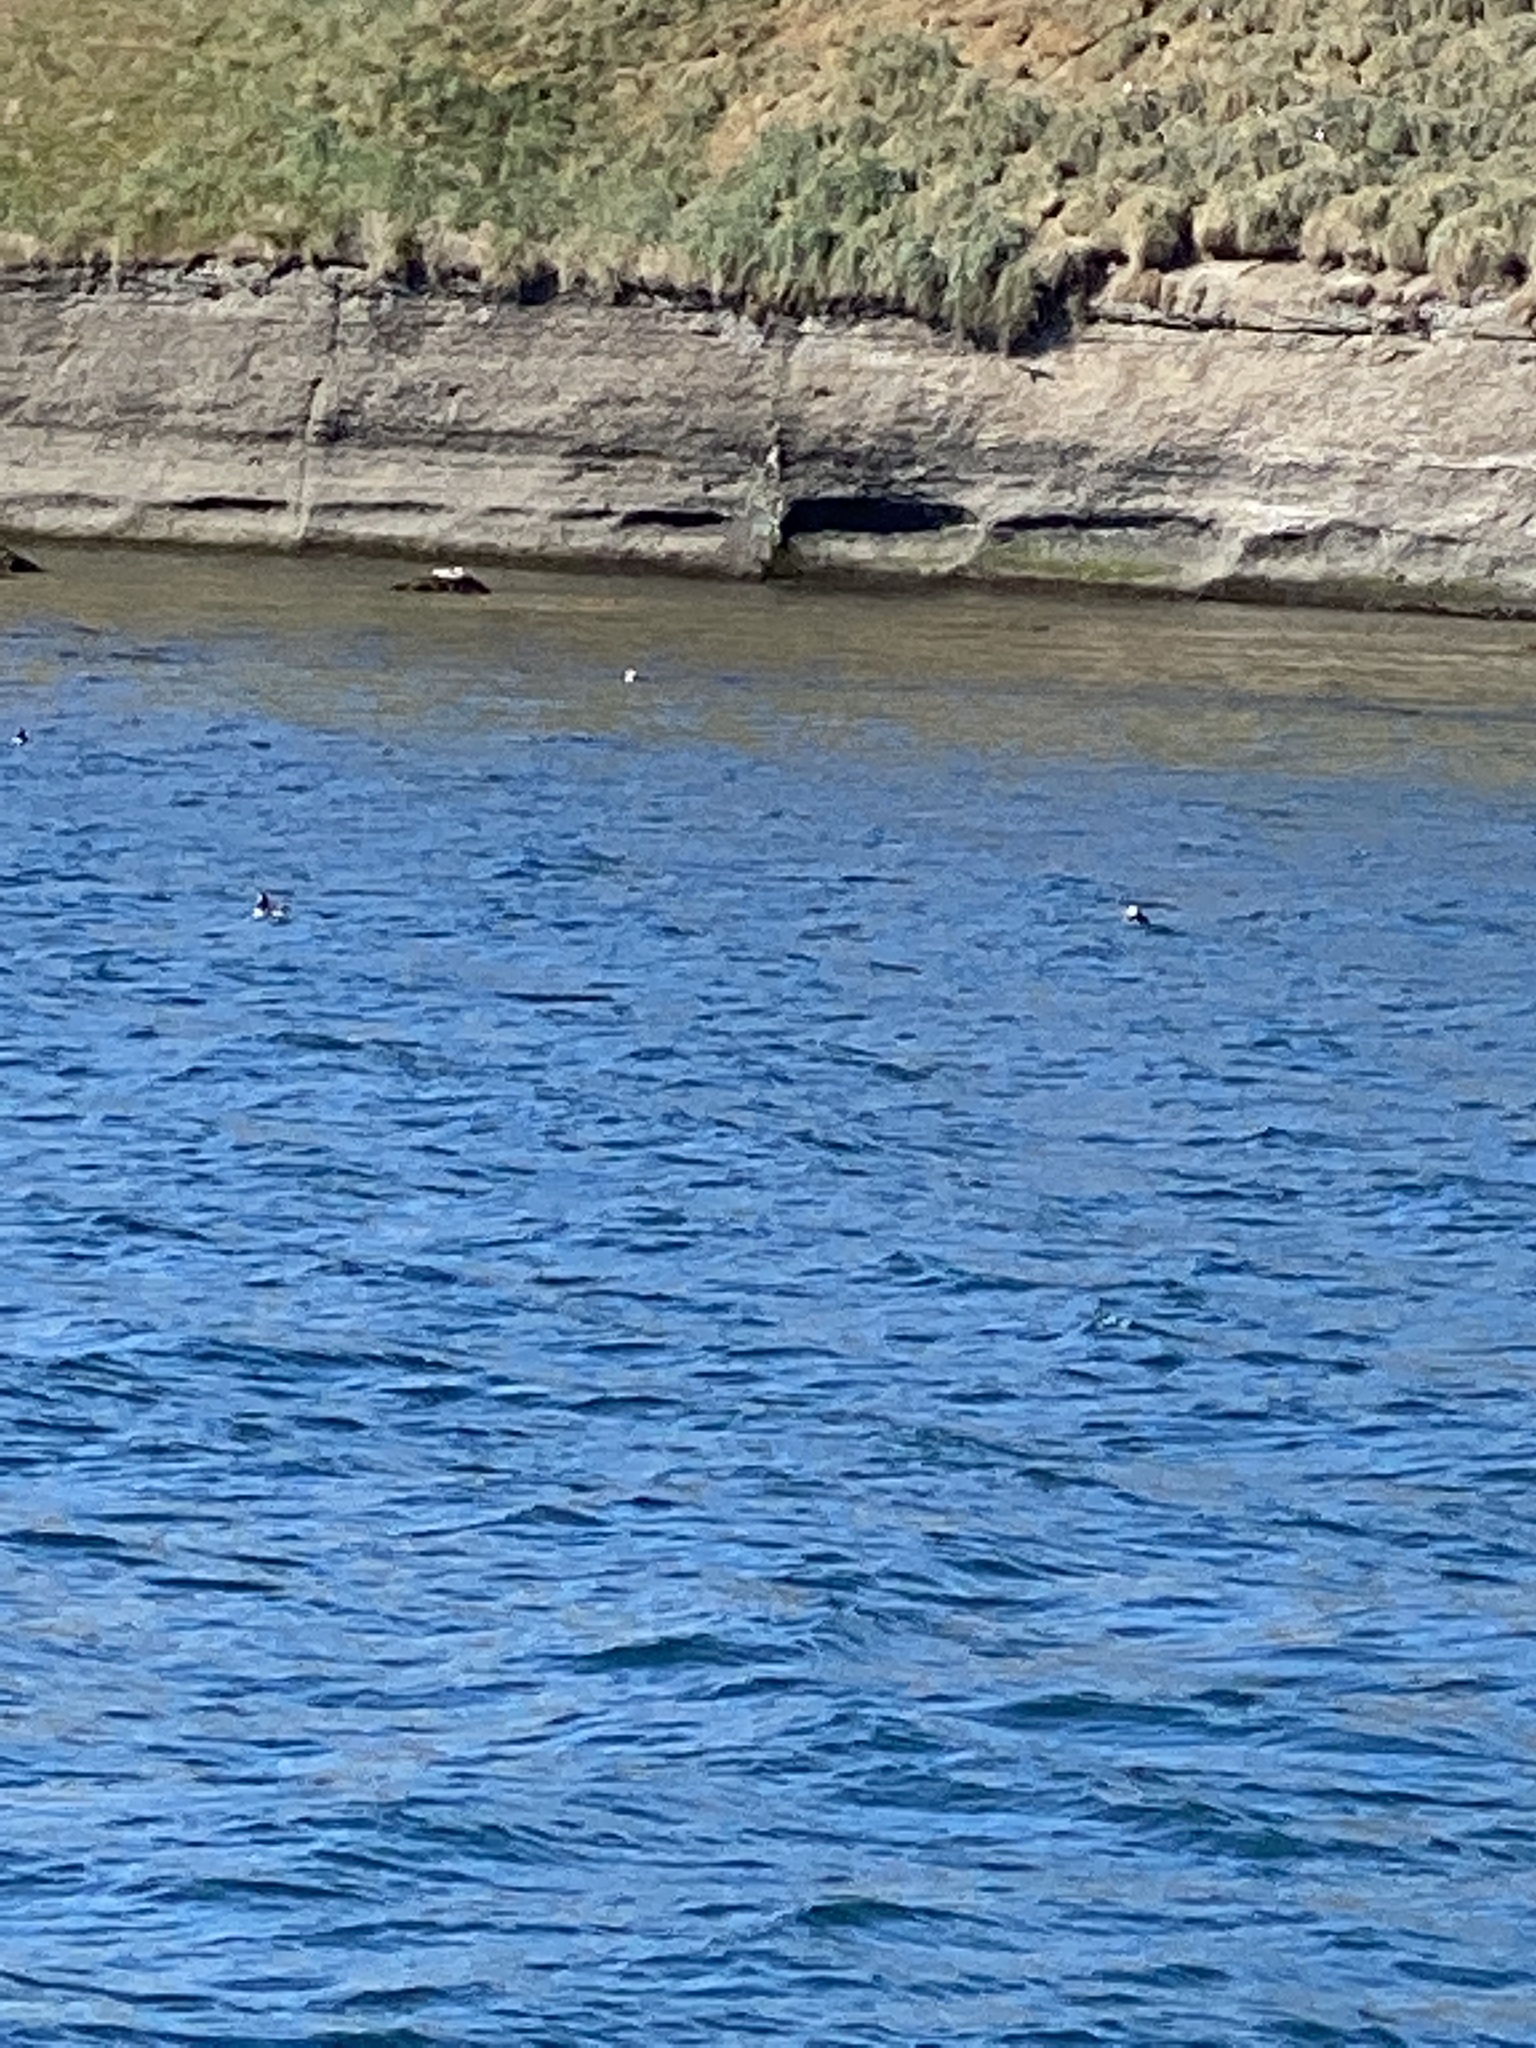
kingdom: Animalia
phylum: Chordata
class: Aves
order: Charadriiformes
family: Alcidae
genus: Fratercula
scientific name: Fratercula arctica
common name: Atlantic puffin
